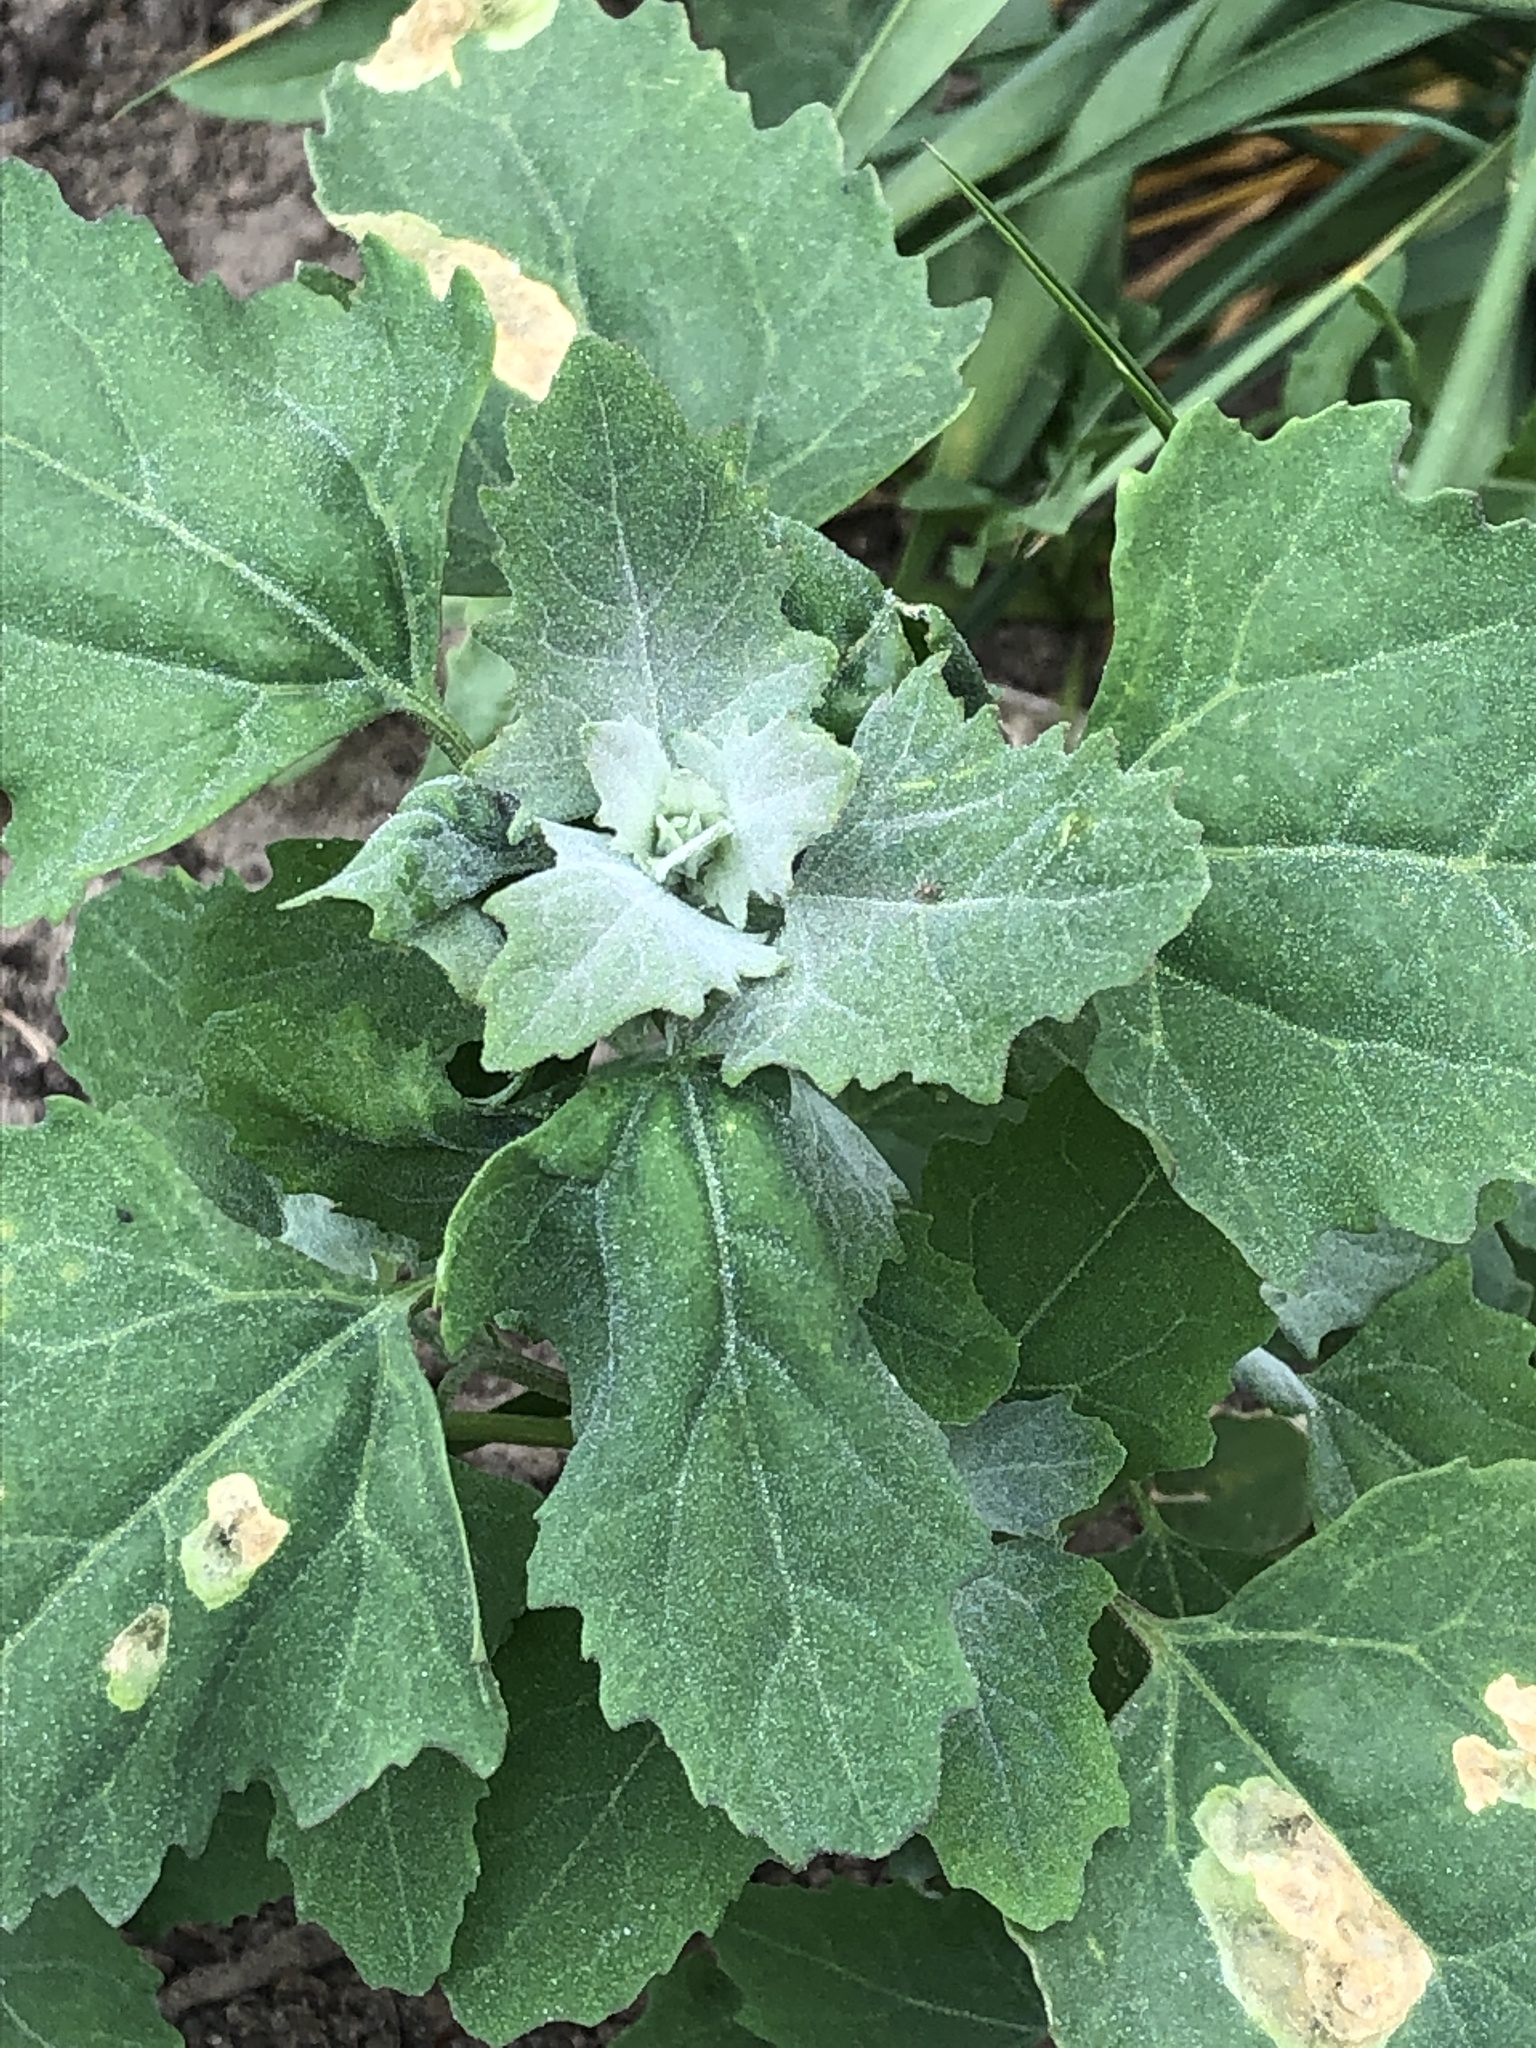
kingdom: Plantae
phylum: Tracheophyta
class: Magnoliopsida
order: Caryophyllales
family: Amaranthaceae
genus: Chenopodium
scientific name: Chenopodium album
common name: Fat-hen
